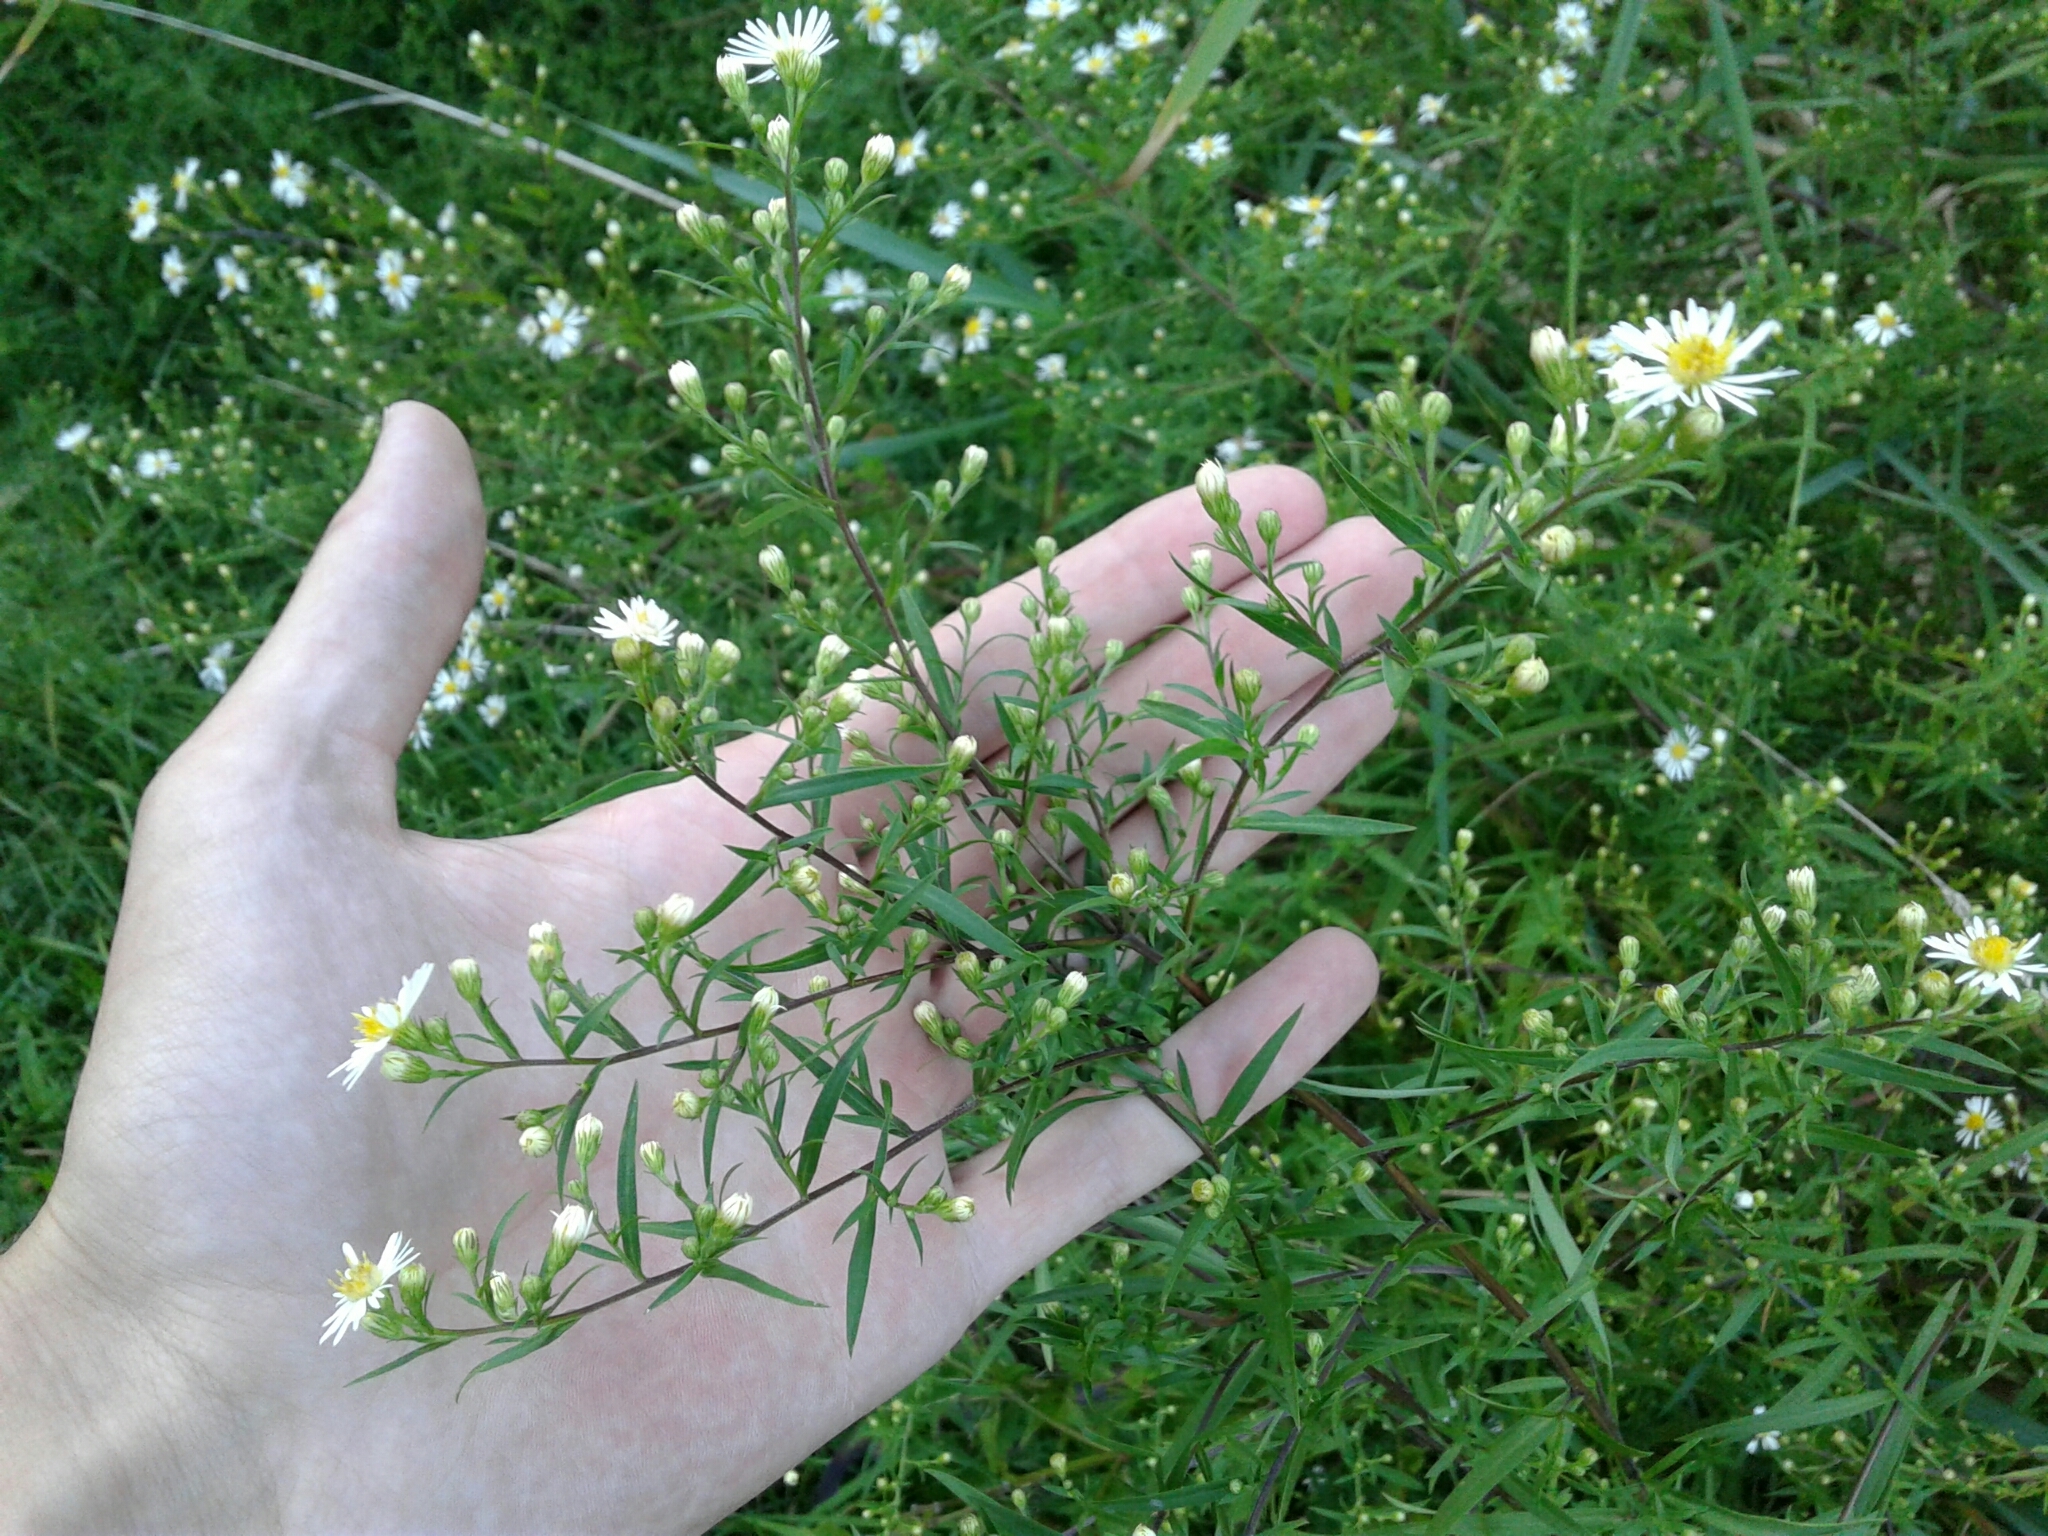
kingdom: Plantae
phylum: Tracheophyta
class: Magnoliopsida
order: Asterales
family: Asteraceae
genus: Symphyotrichum
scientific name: Symphyotrichum lanceolatum
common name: Panicled aster
